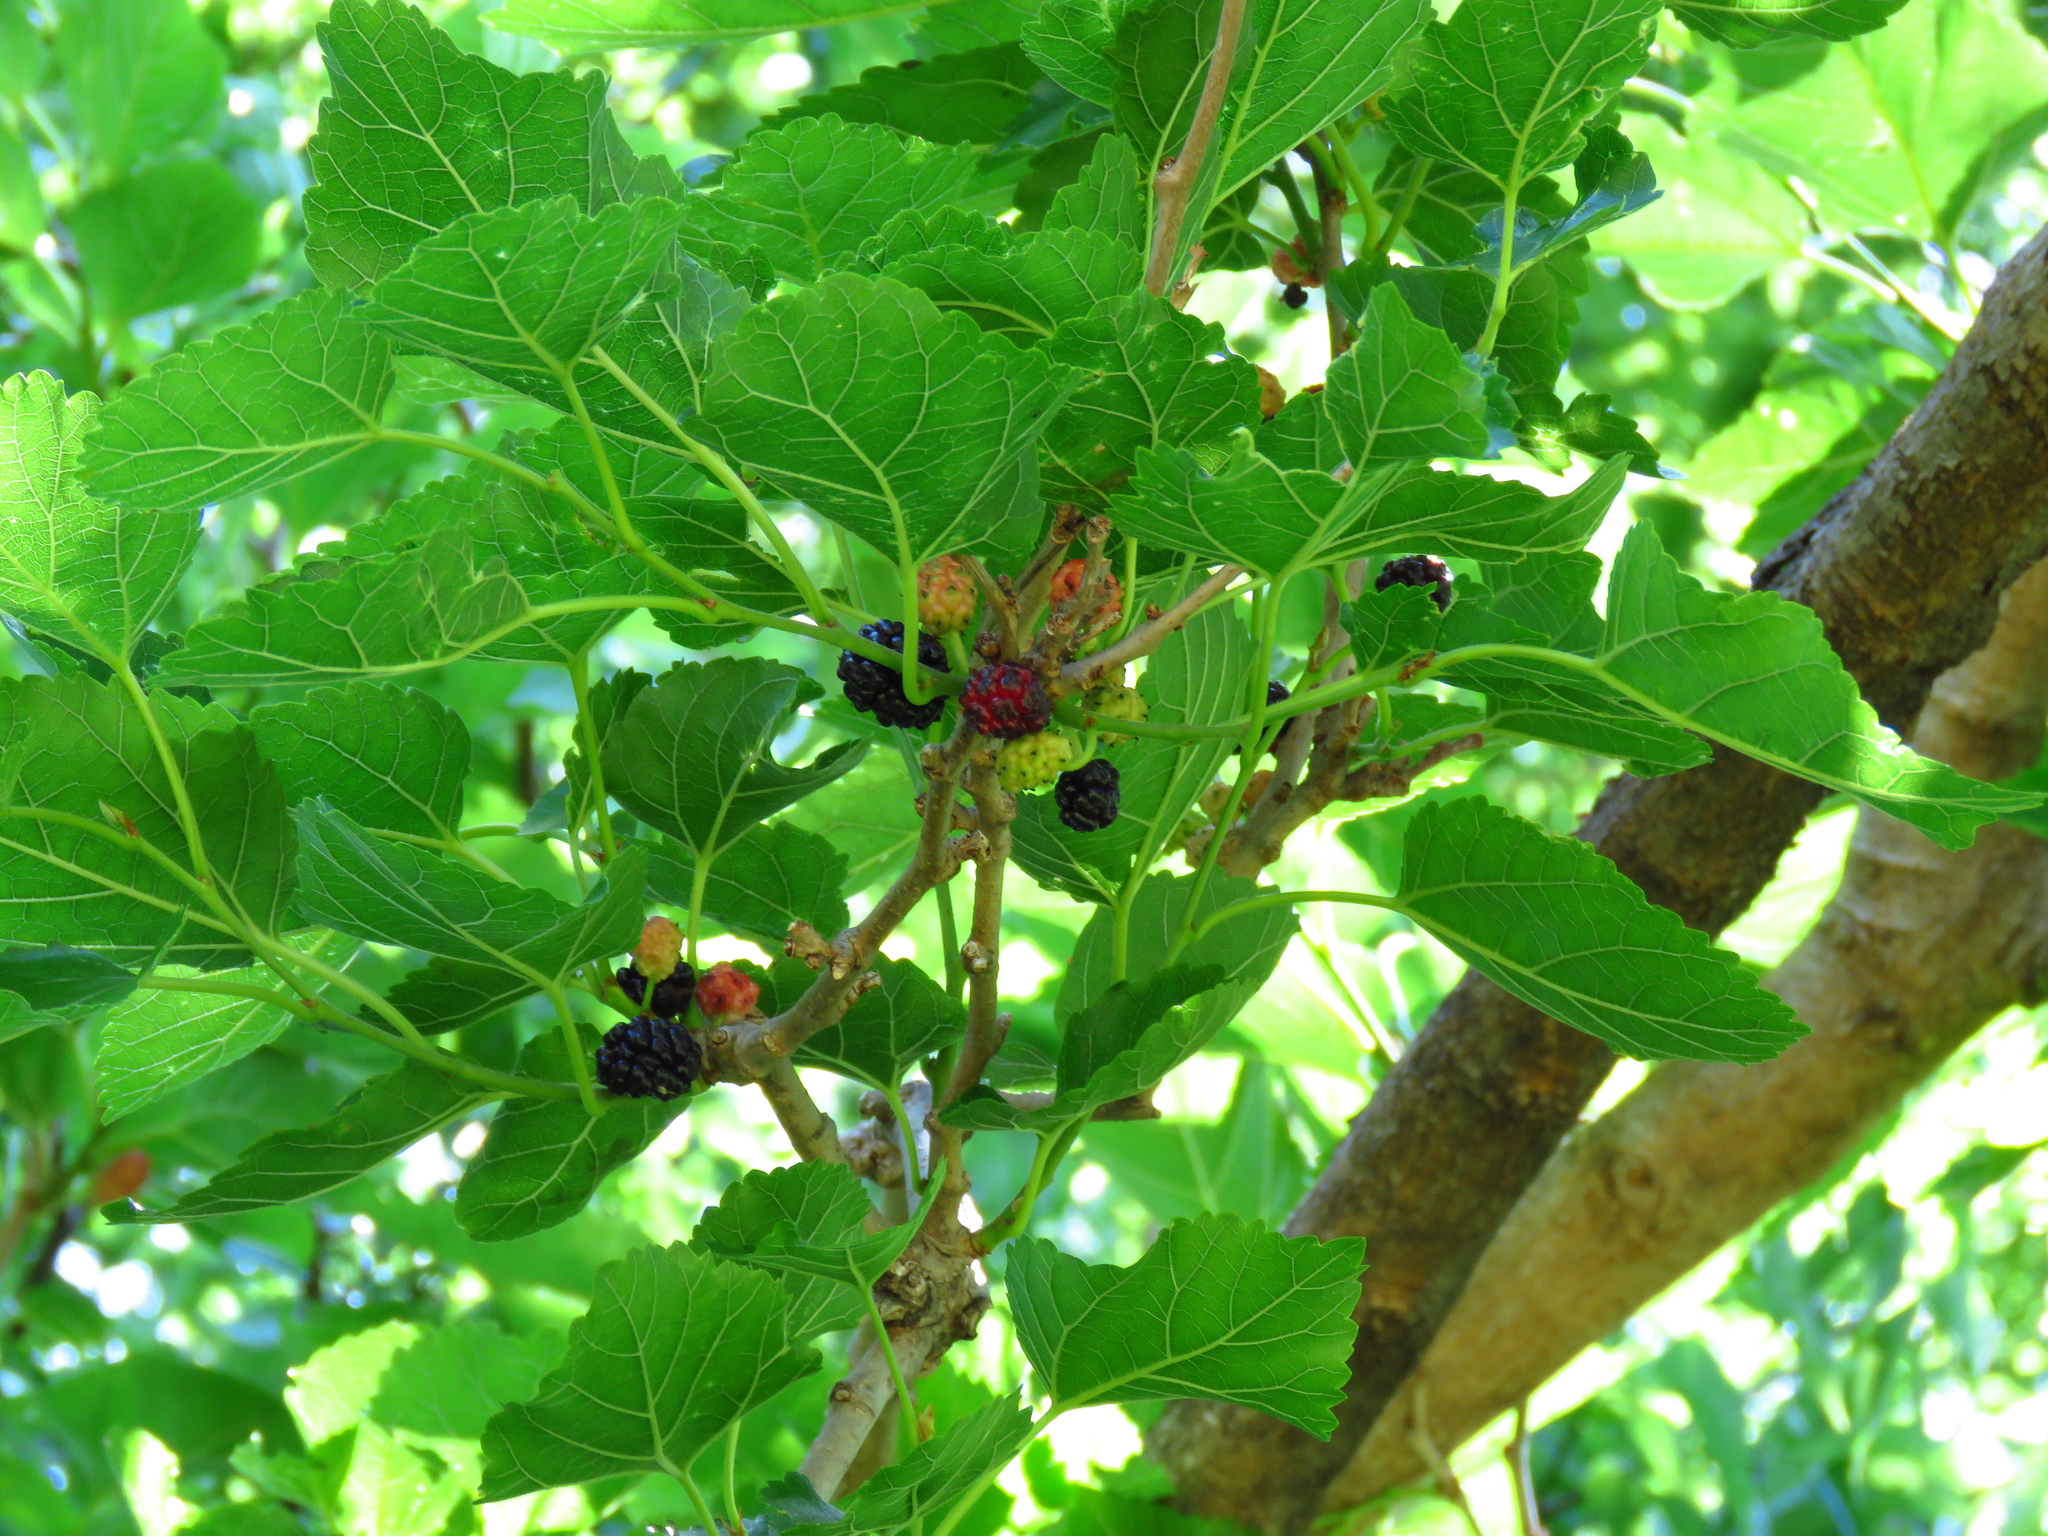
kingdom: Plantae
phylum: Tracheophyta
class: Magnoliopsida
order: Rosales
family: Moraceae
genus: Morus
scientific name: Morus alba
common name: White mulberry
